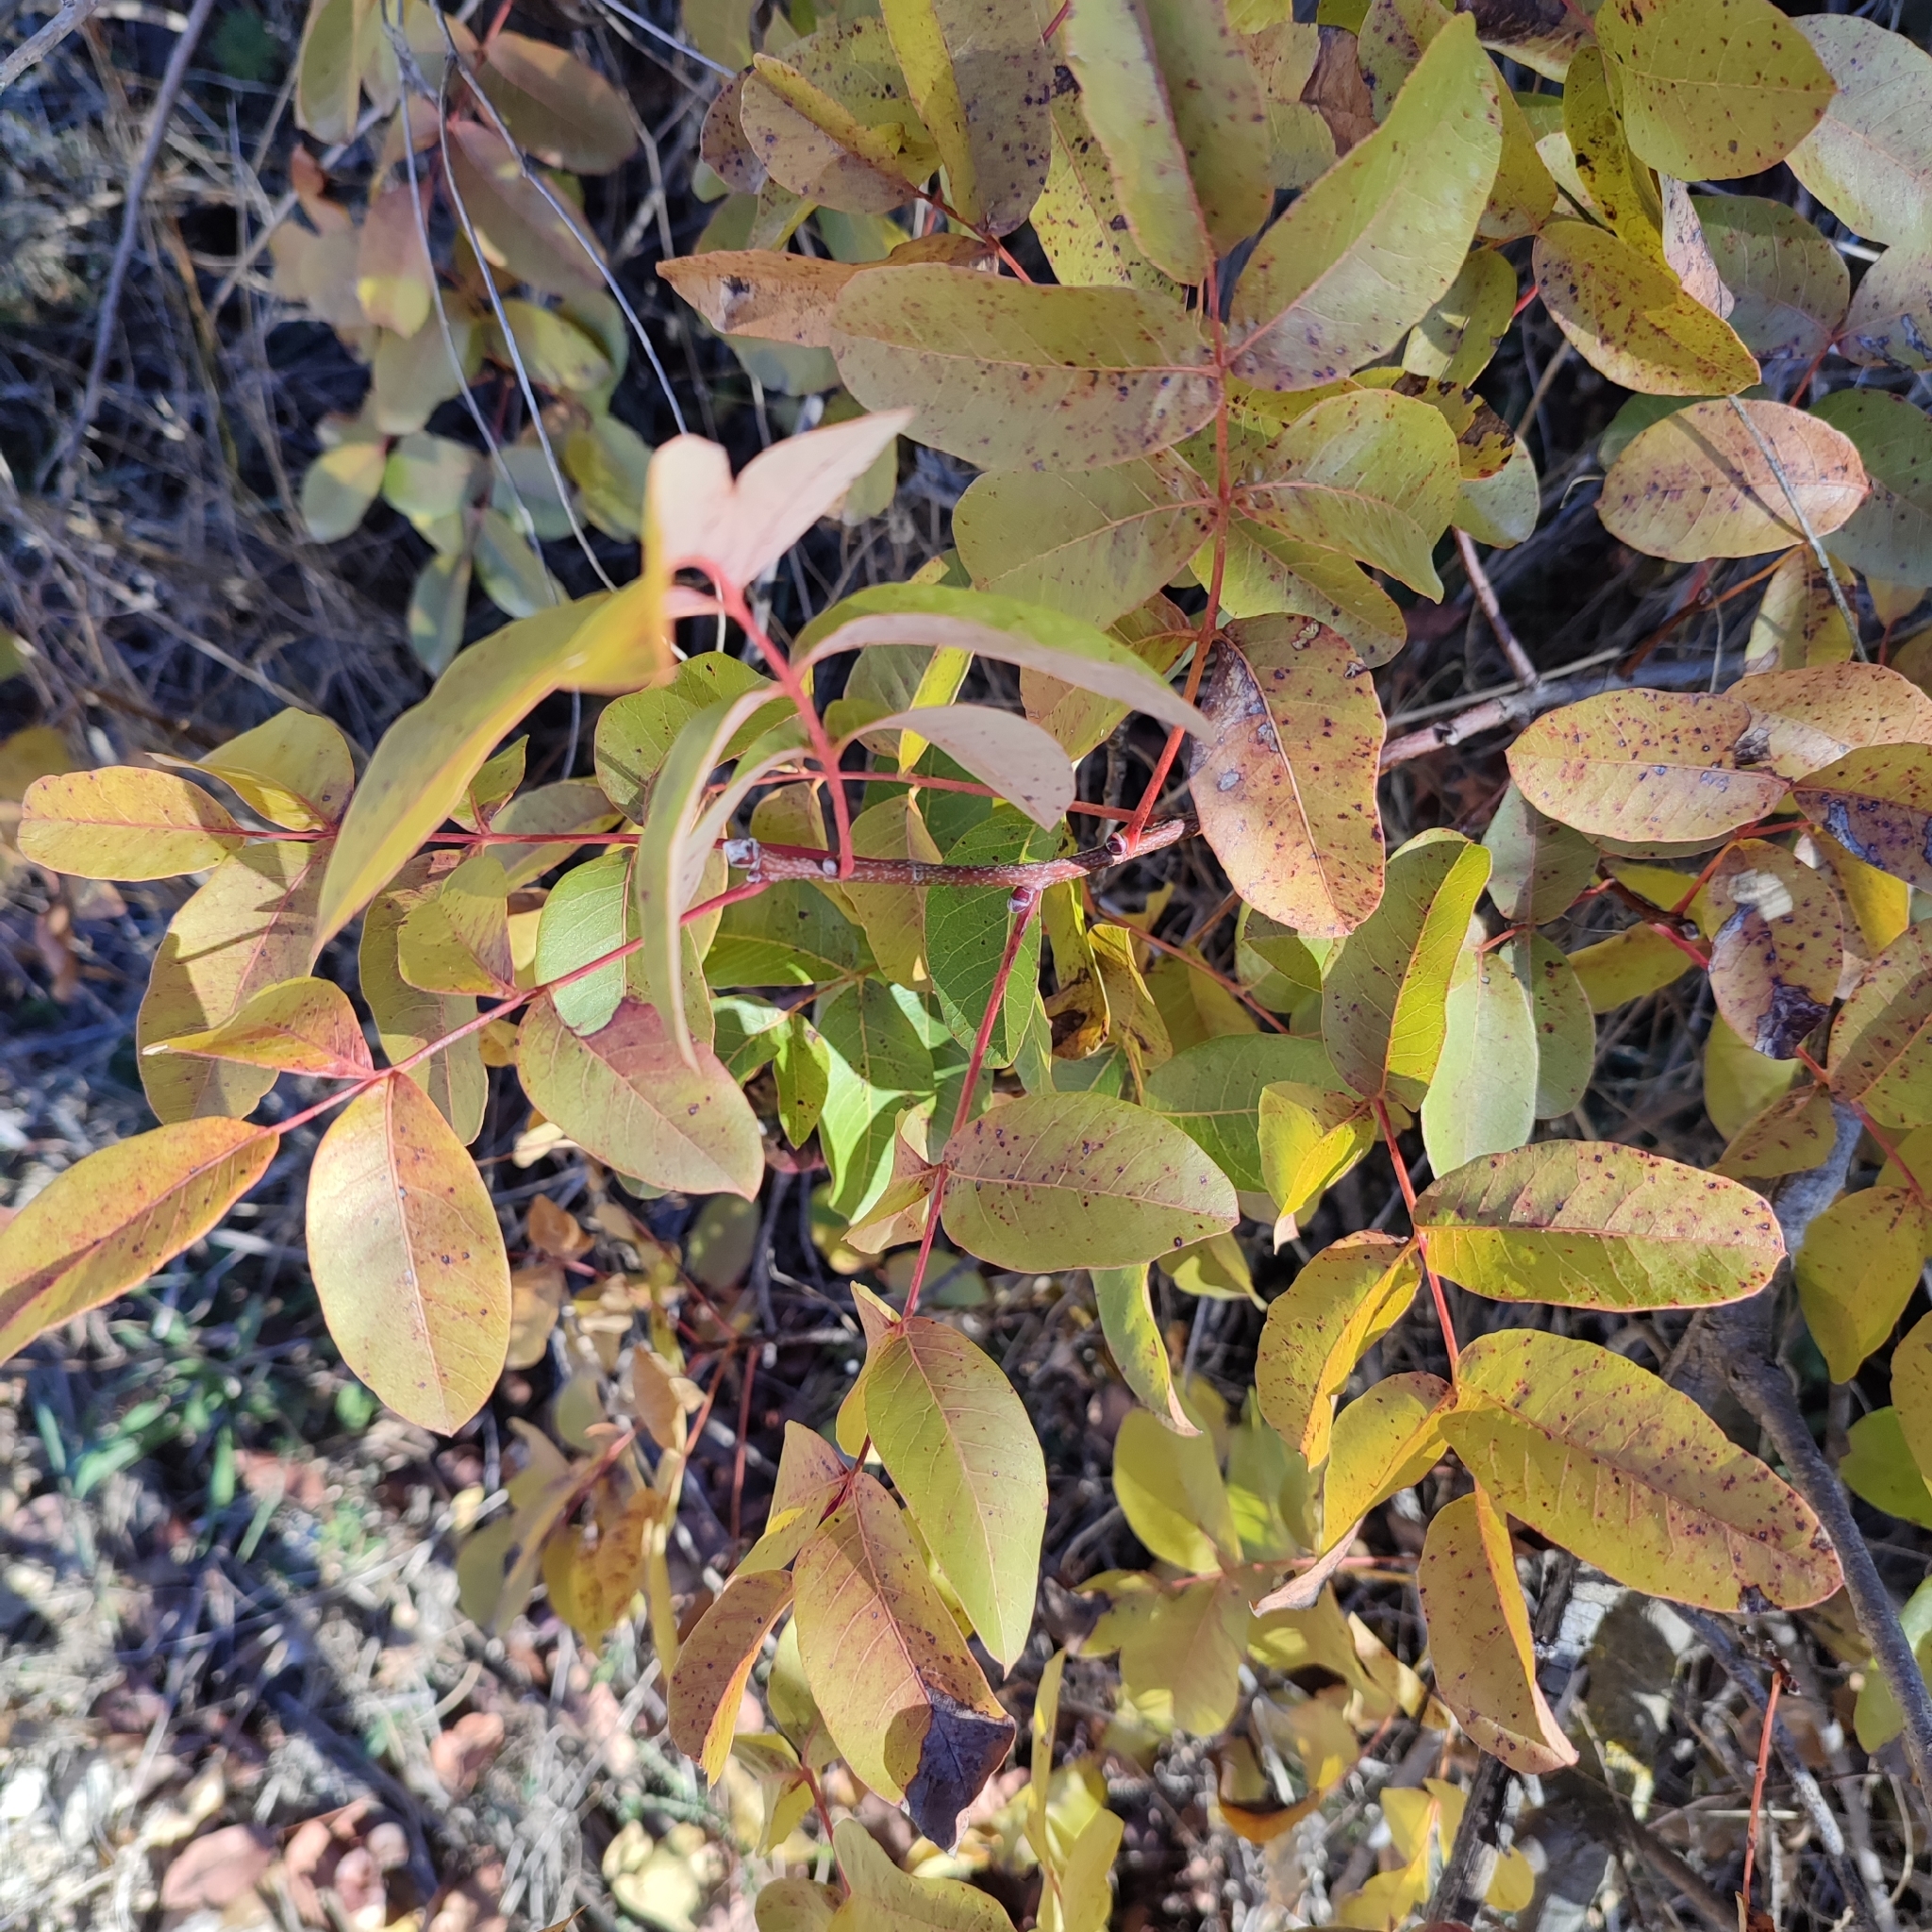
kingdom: Plantae
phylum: Tracheophyta
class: Magnoliopsida
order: Sapindales
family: Anacardiaceae
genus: Pistacia
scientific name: Pistacia terebinthus
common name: Terebinth
